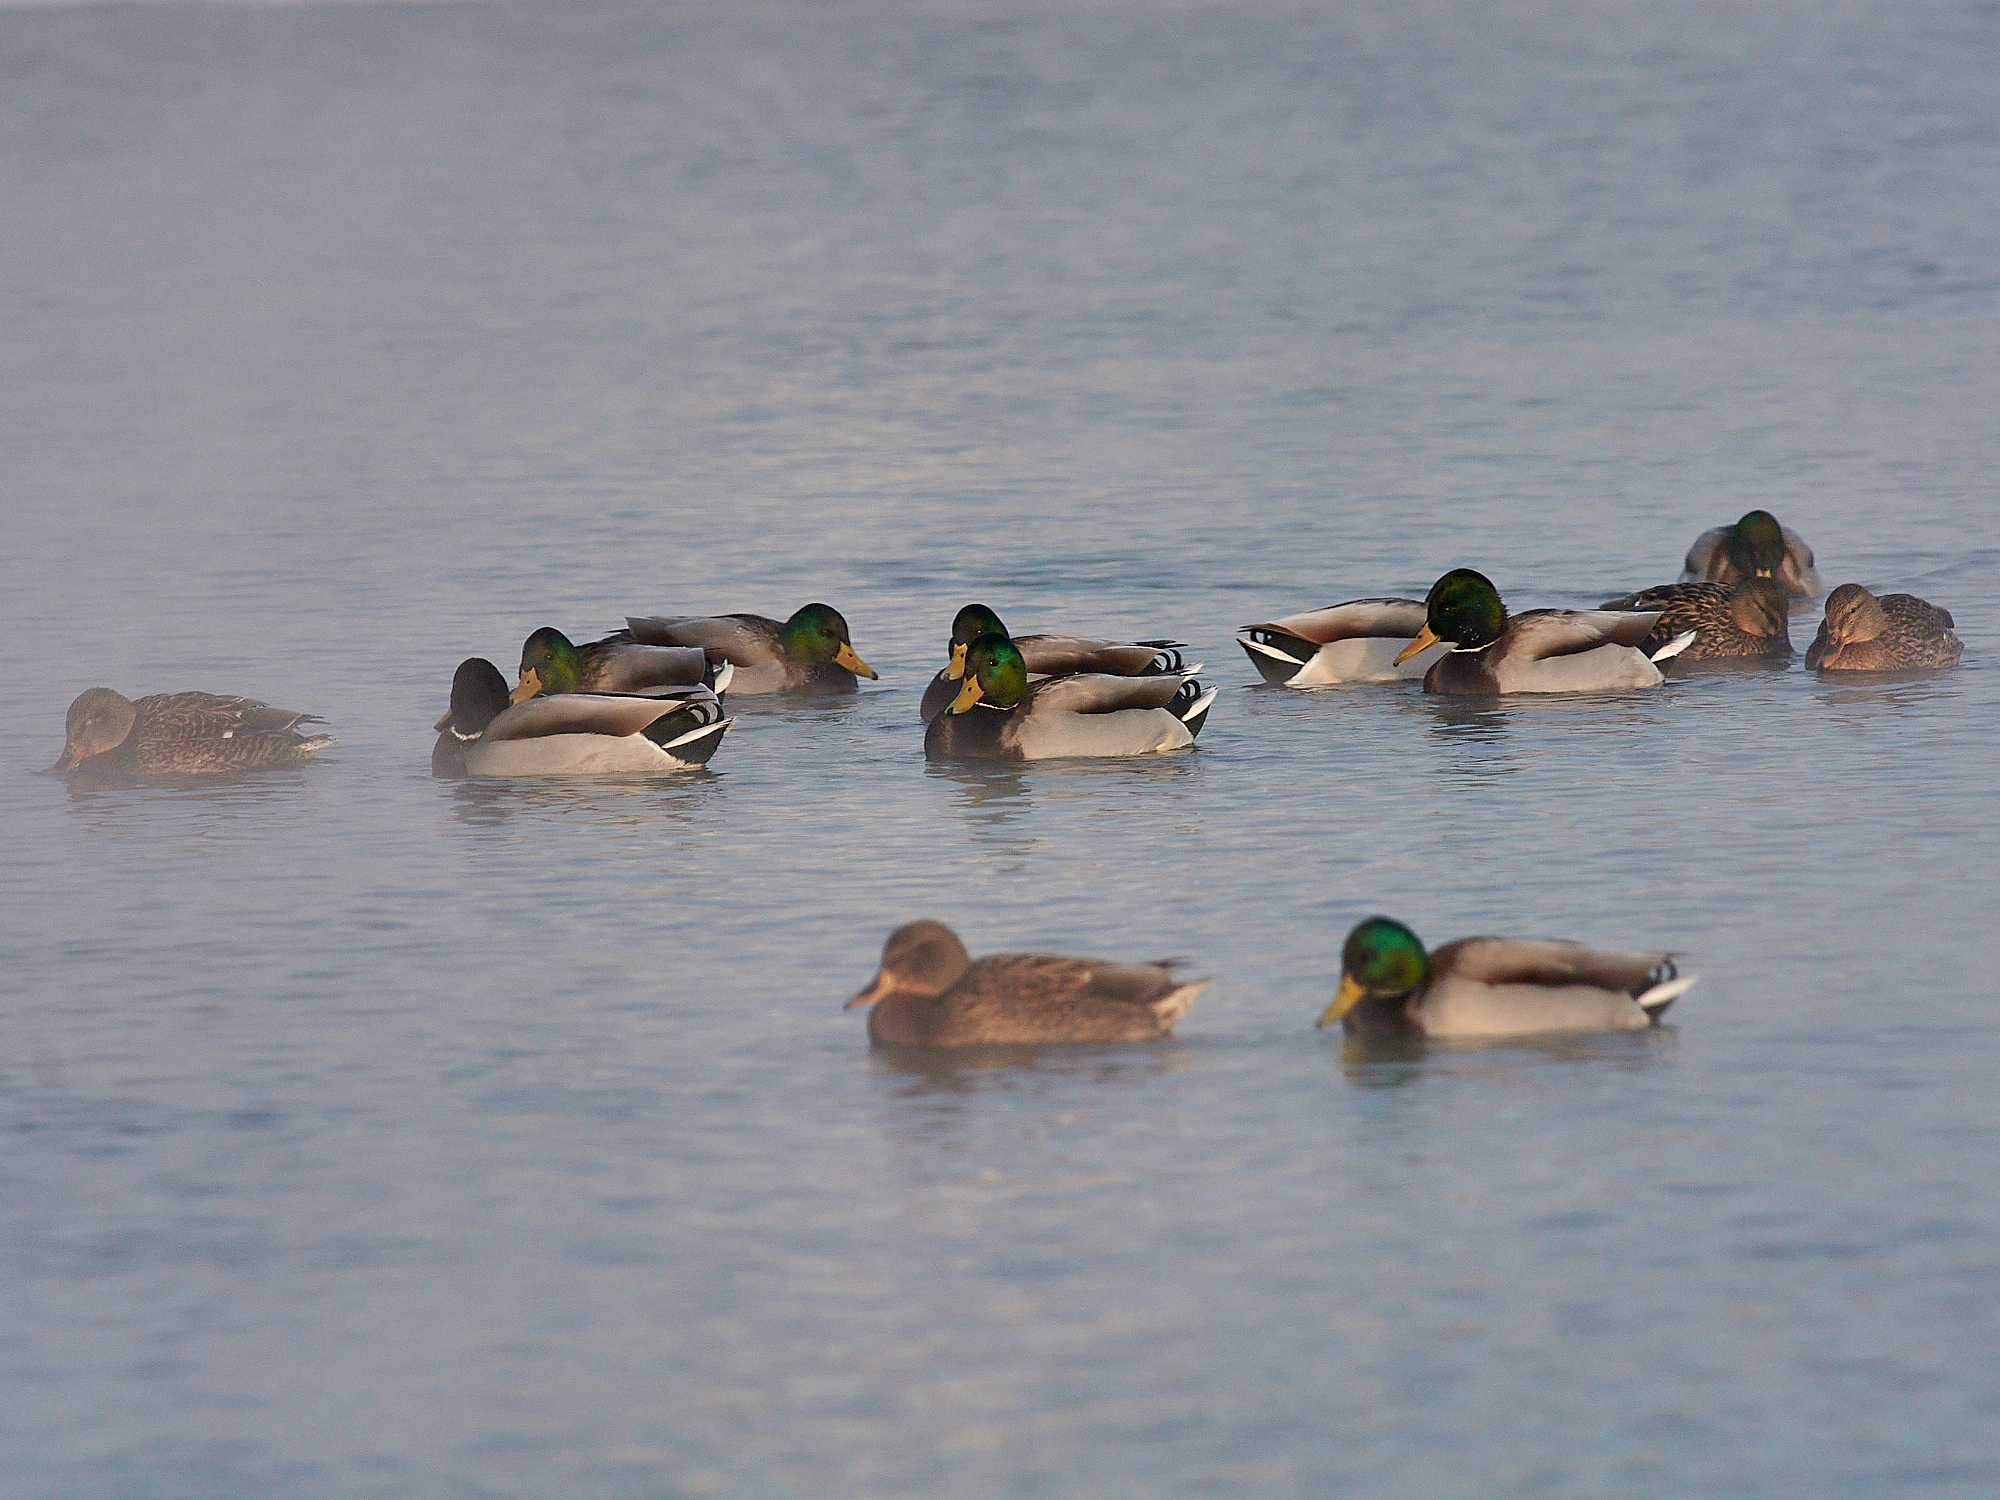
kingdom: Animalia
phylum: Chordata
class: Aves
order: Anseriformes
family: Anatidae
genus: Anas
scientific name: Anas platyrhynchos
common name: Mallard
